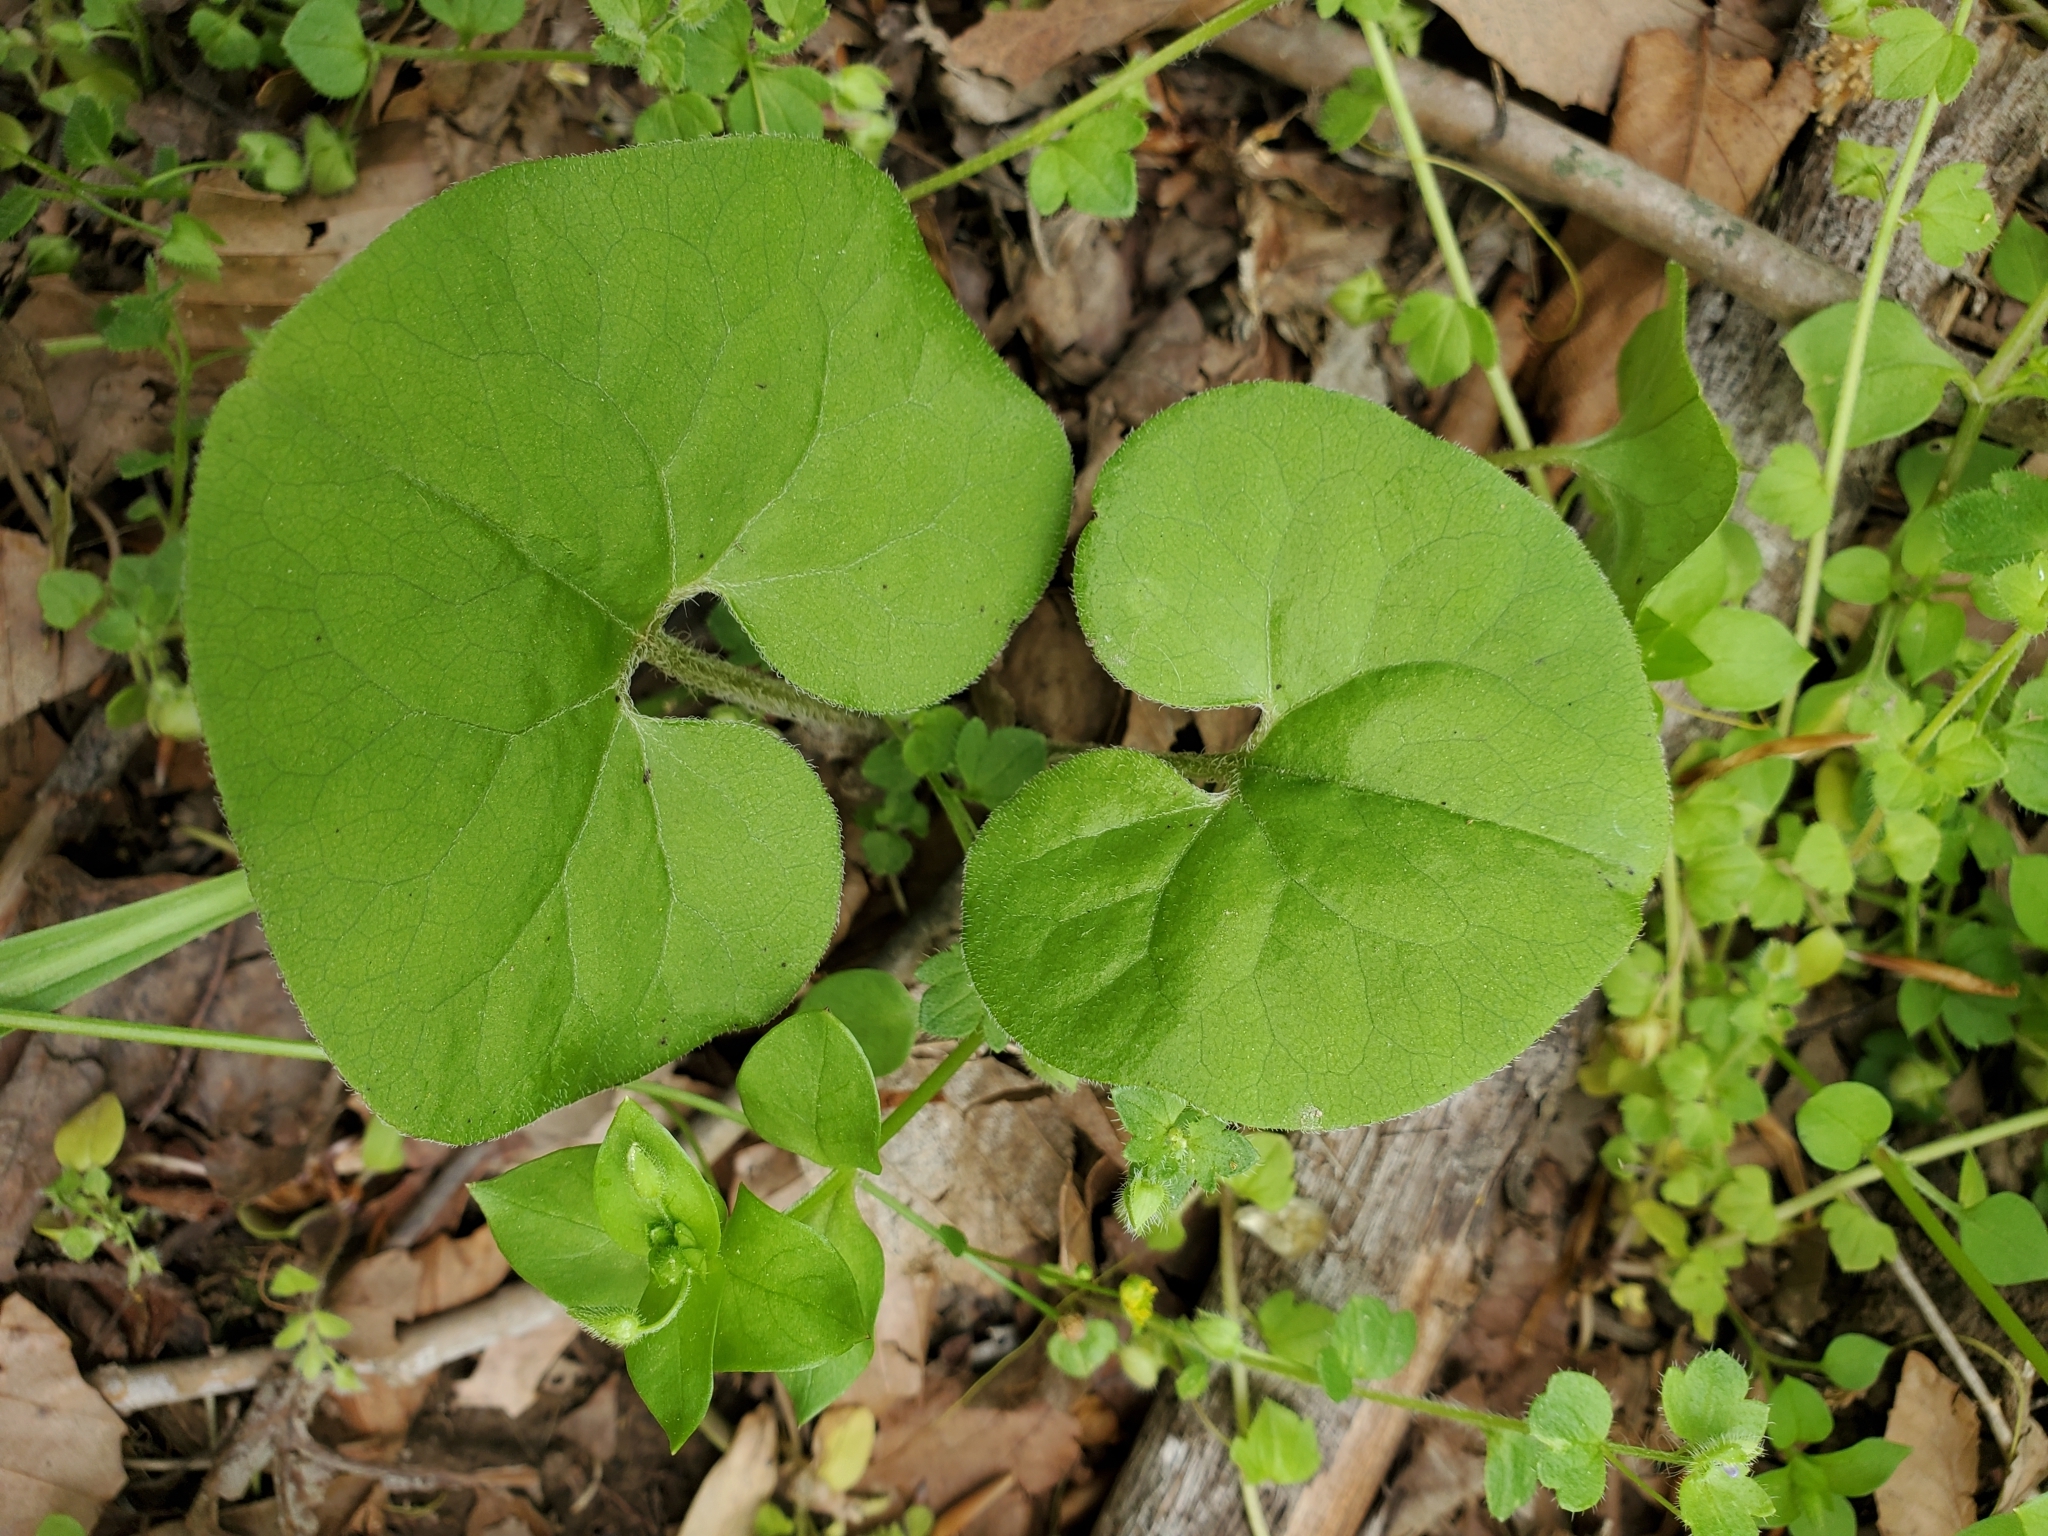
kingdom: Plantae
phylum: Tracheophyta
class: Magnoliopsida
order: Piperales
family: Aristolochiaceae
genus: Asarum
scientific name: Asarum canadense
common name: Wild ginger
